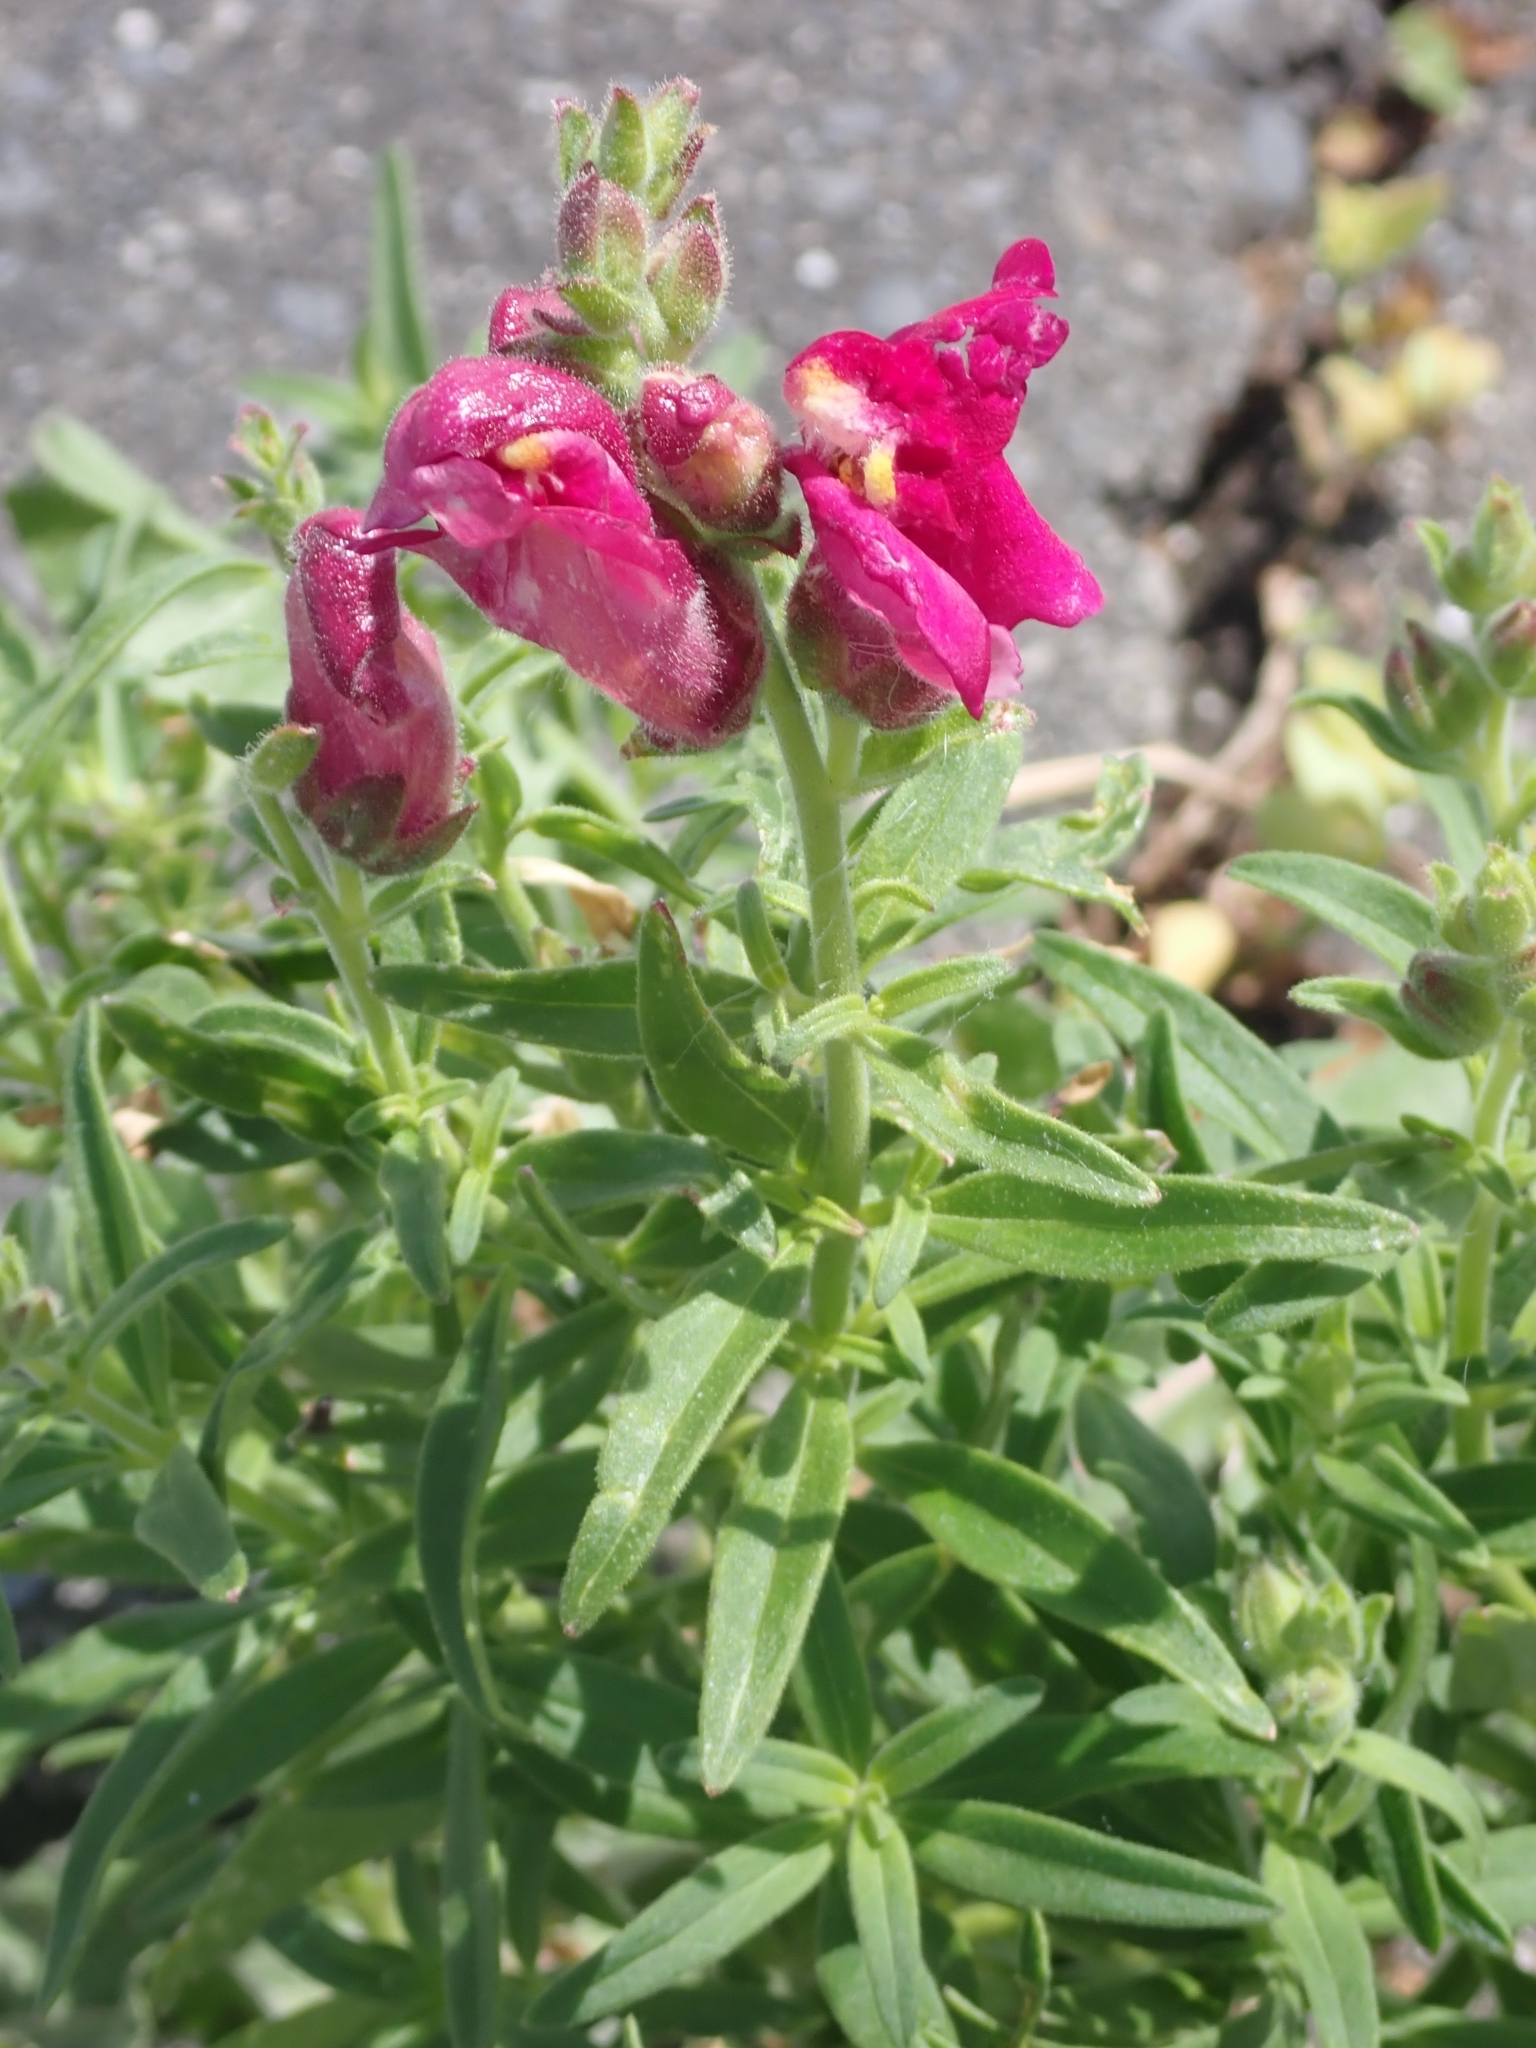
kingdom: Plantae
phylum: Tracheophyta
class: Magnoliopsida
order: Lamiales
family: Plantaginaceae
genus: Antirrhinum
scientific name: Antirrhinum majus
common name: Snapdragon
